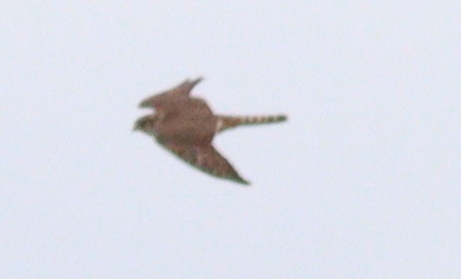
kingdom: Animalia
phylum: Chordata
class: Aves
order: Falconiformes
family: Falconidae
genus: Falco
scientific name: Falco columbarius
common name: Merlin
